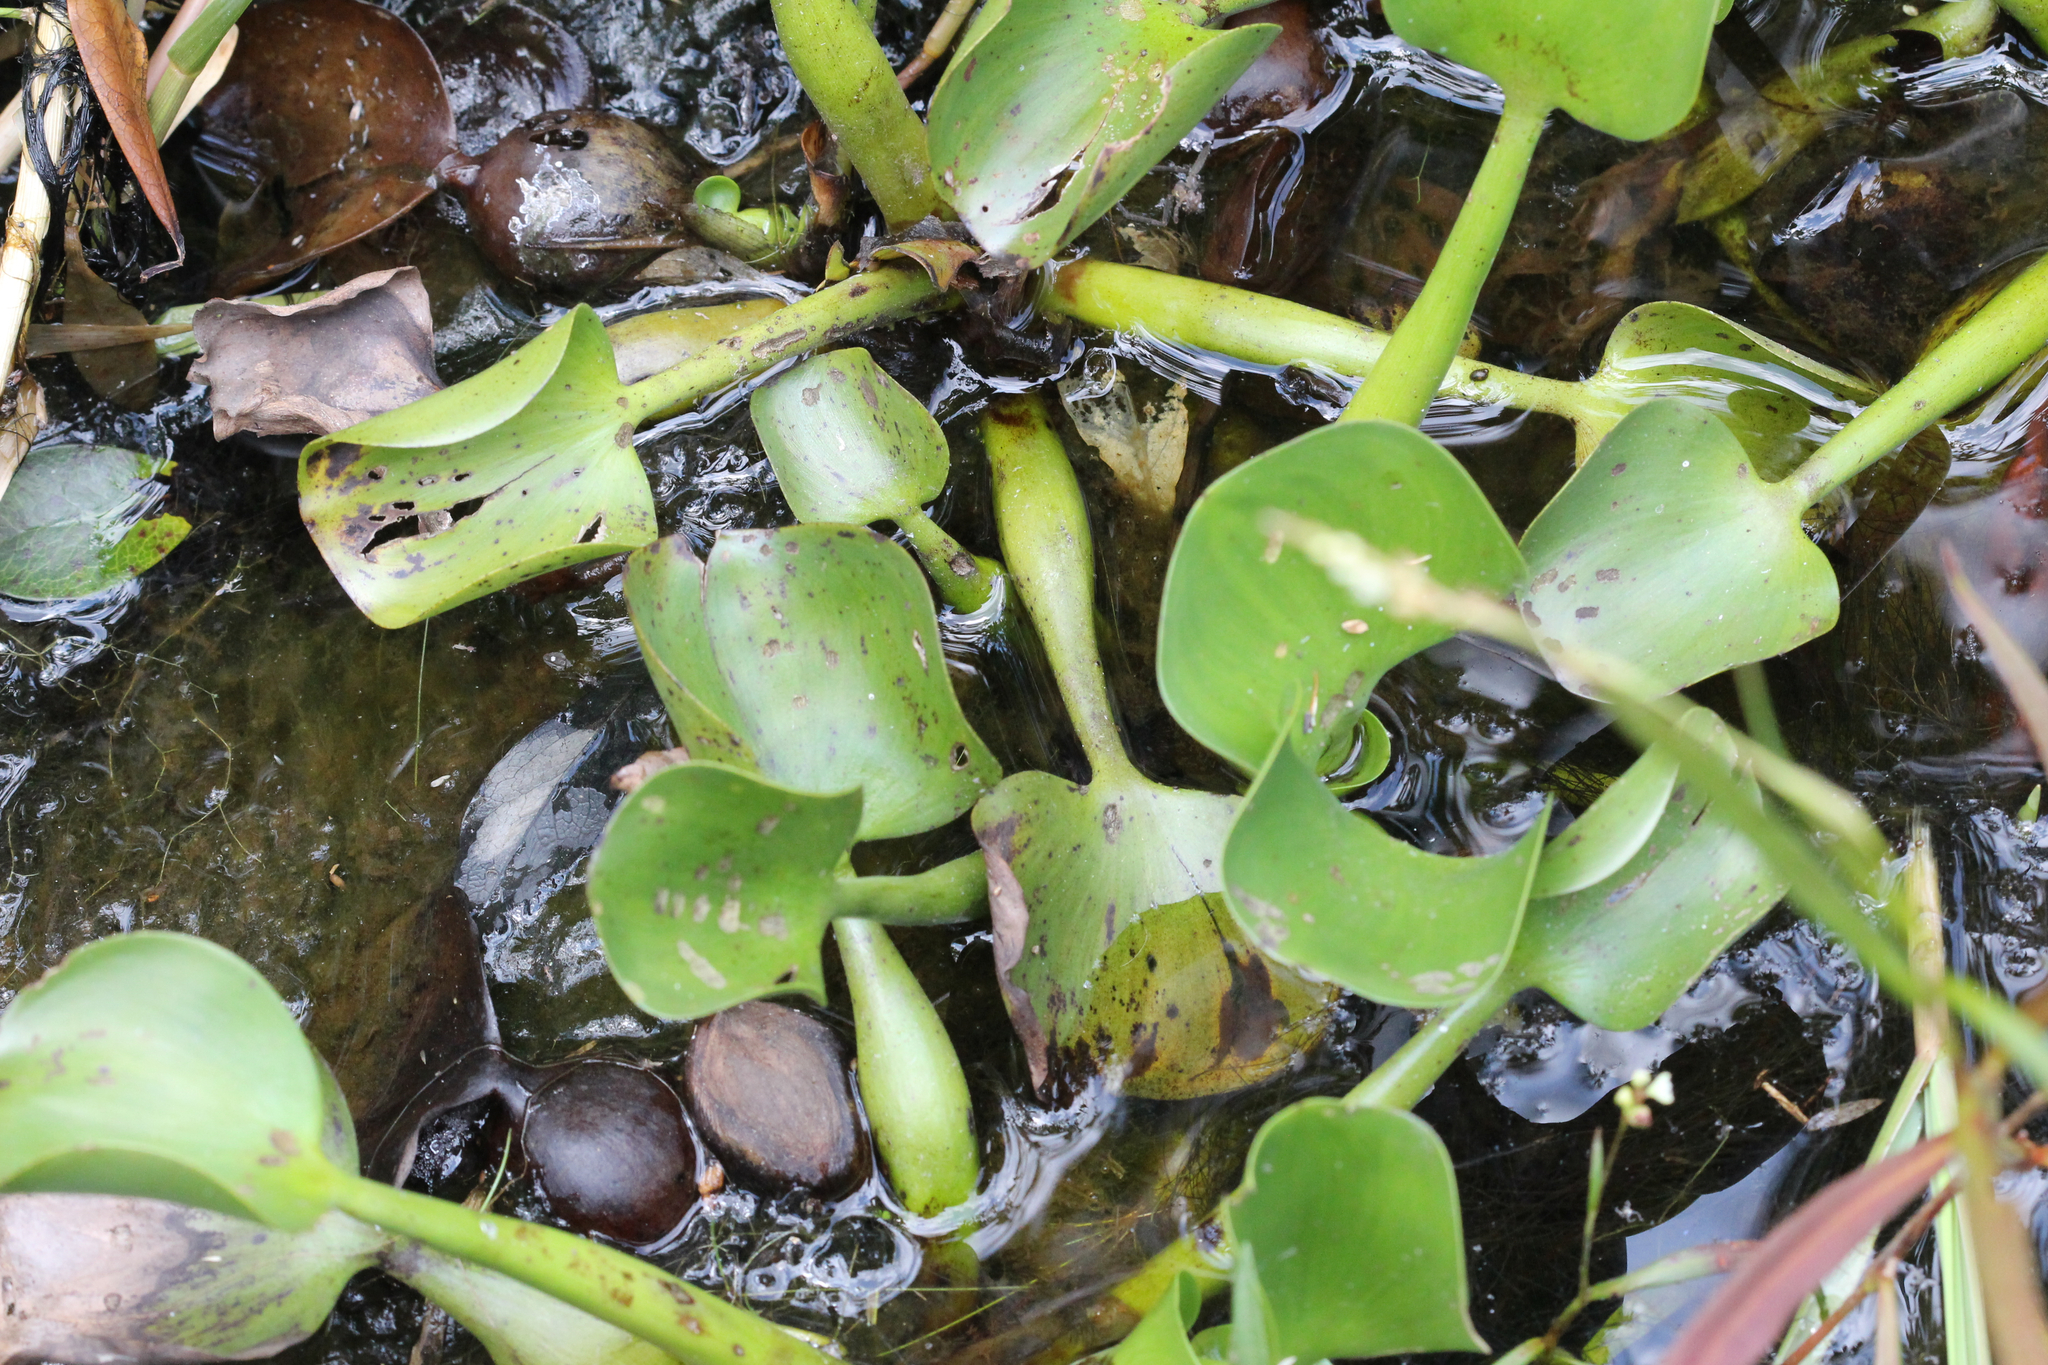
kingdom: Plantae
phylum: Tracheophyta
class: Liliopsida
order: Commelinales
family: Pontederiaceae
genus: Pontederia
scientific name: Pontederia crassipes
